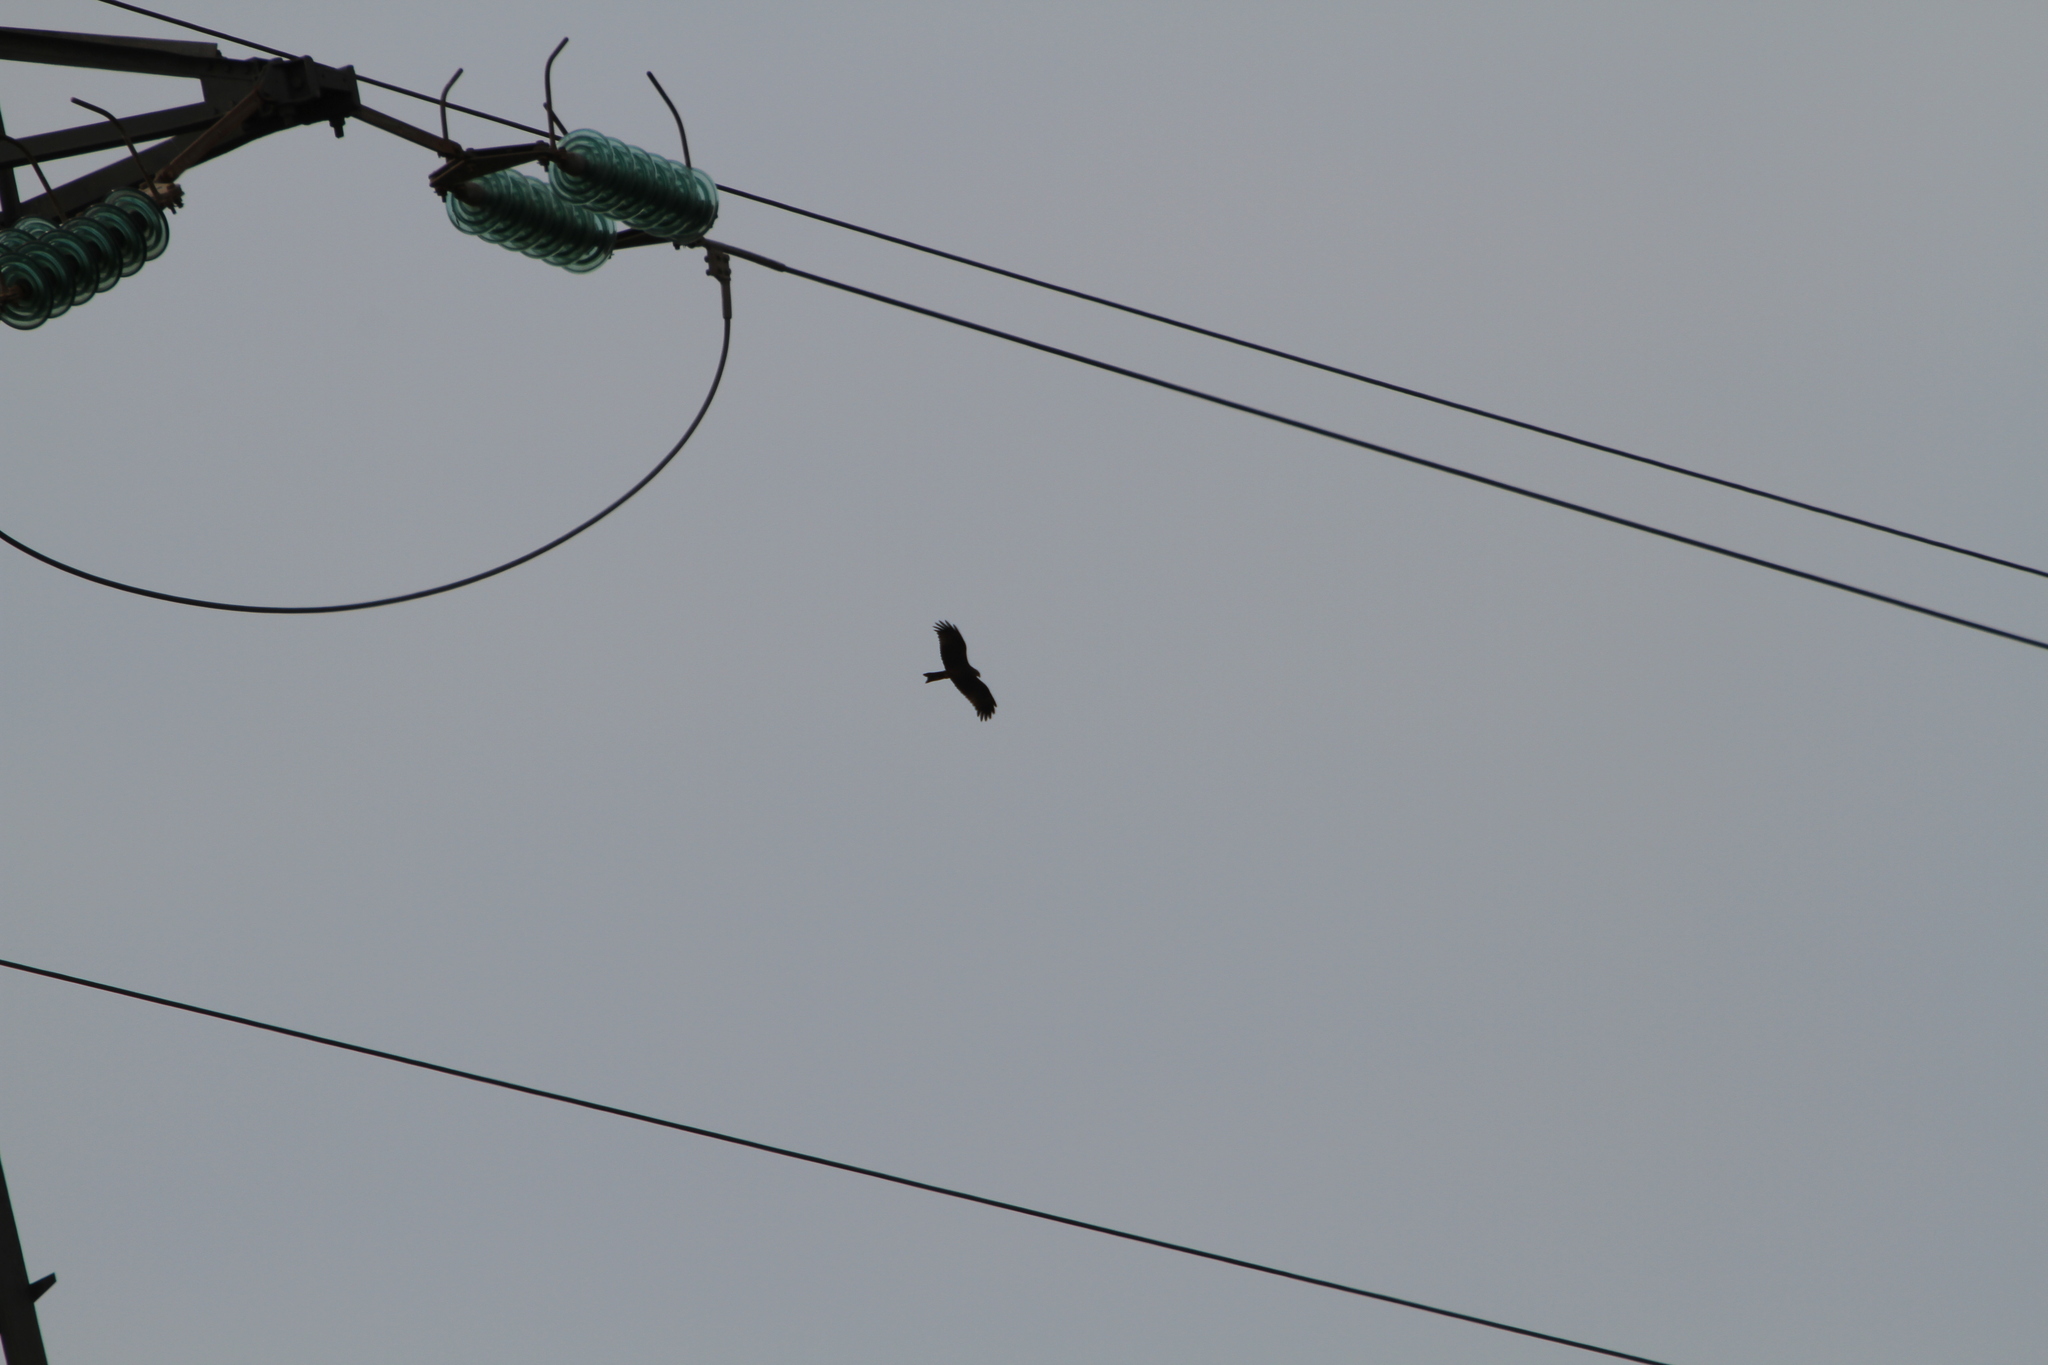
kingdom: Animalia
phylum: Chordata
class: Aves
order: Accipitriformes
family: Accipitridae
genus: Milvus
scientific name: Milvus migrans
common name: Black kite
